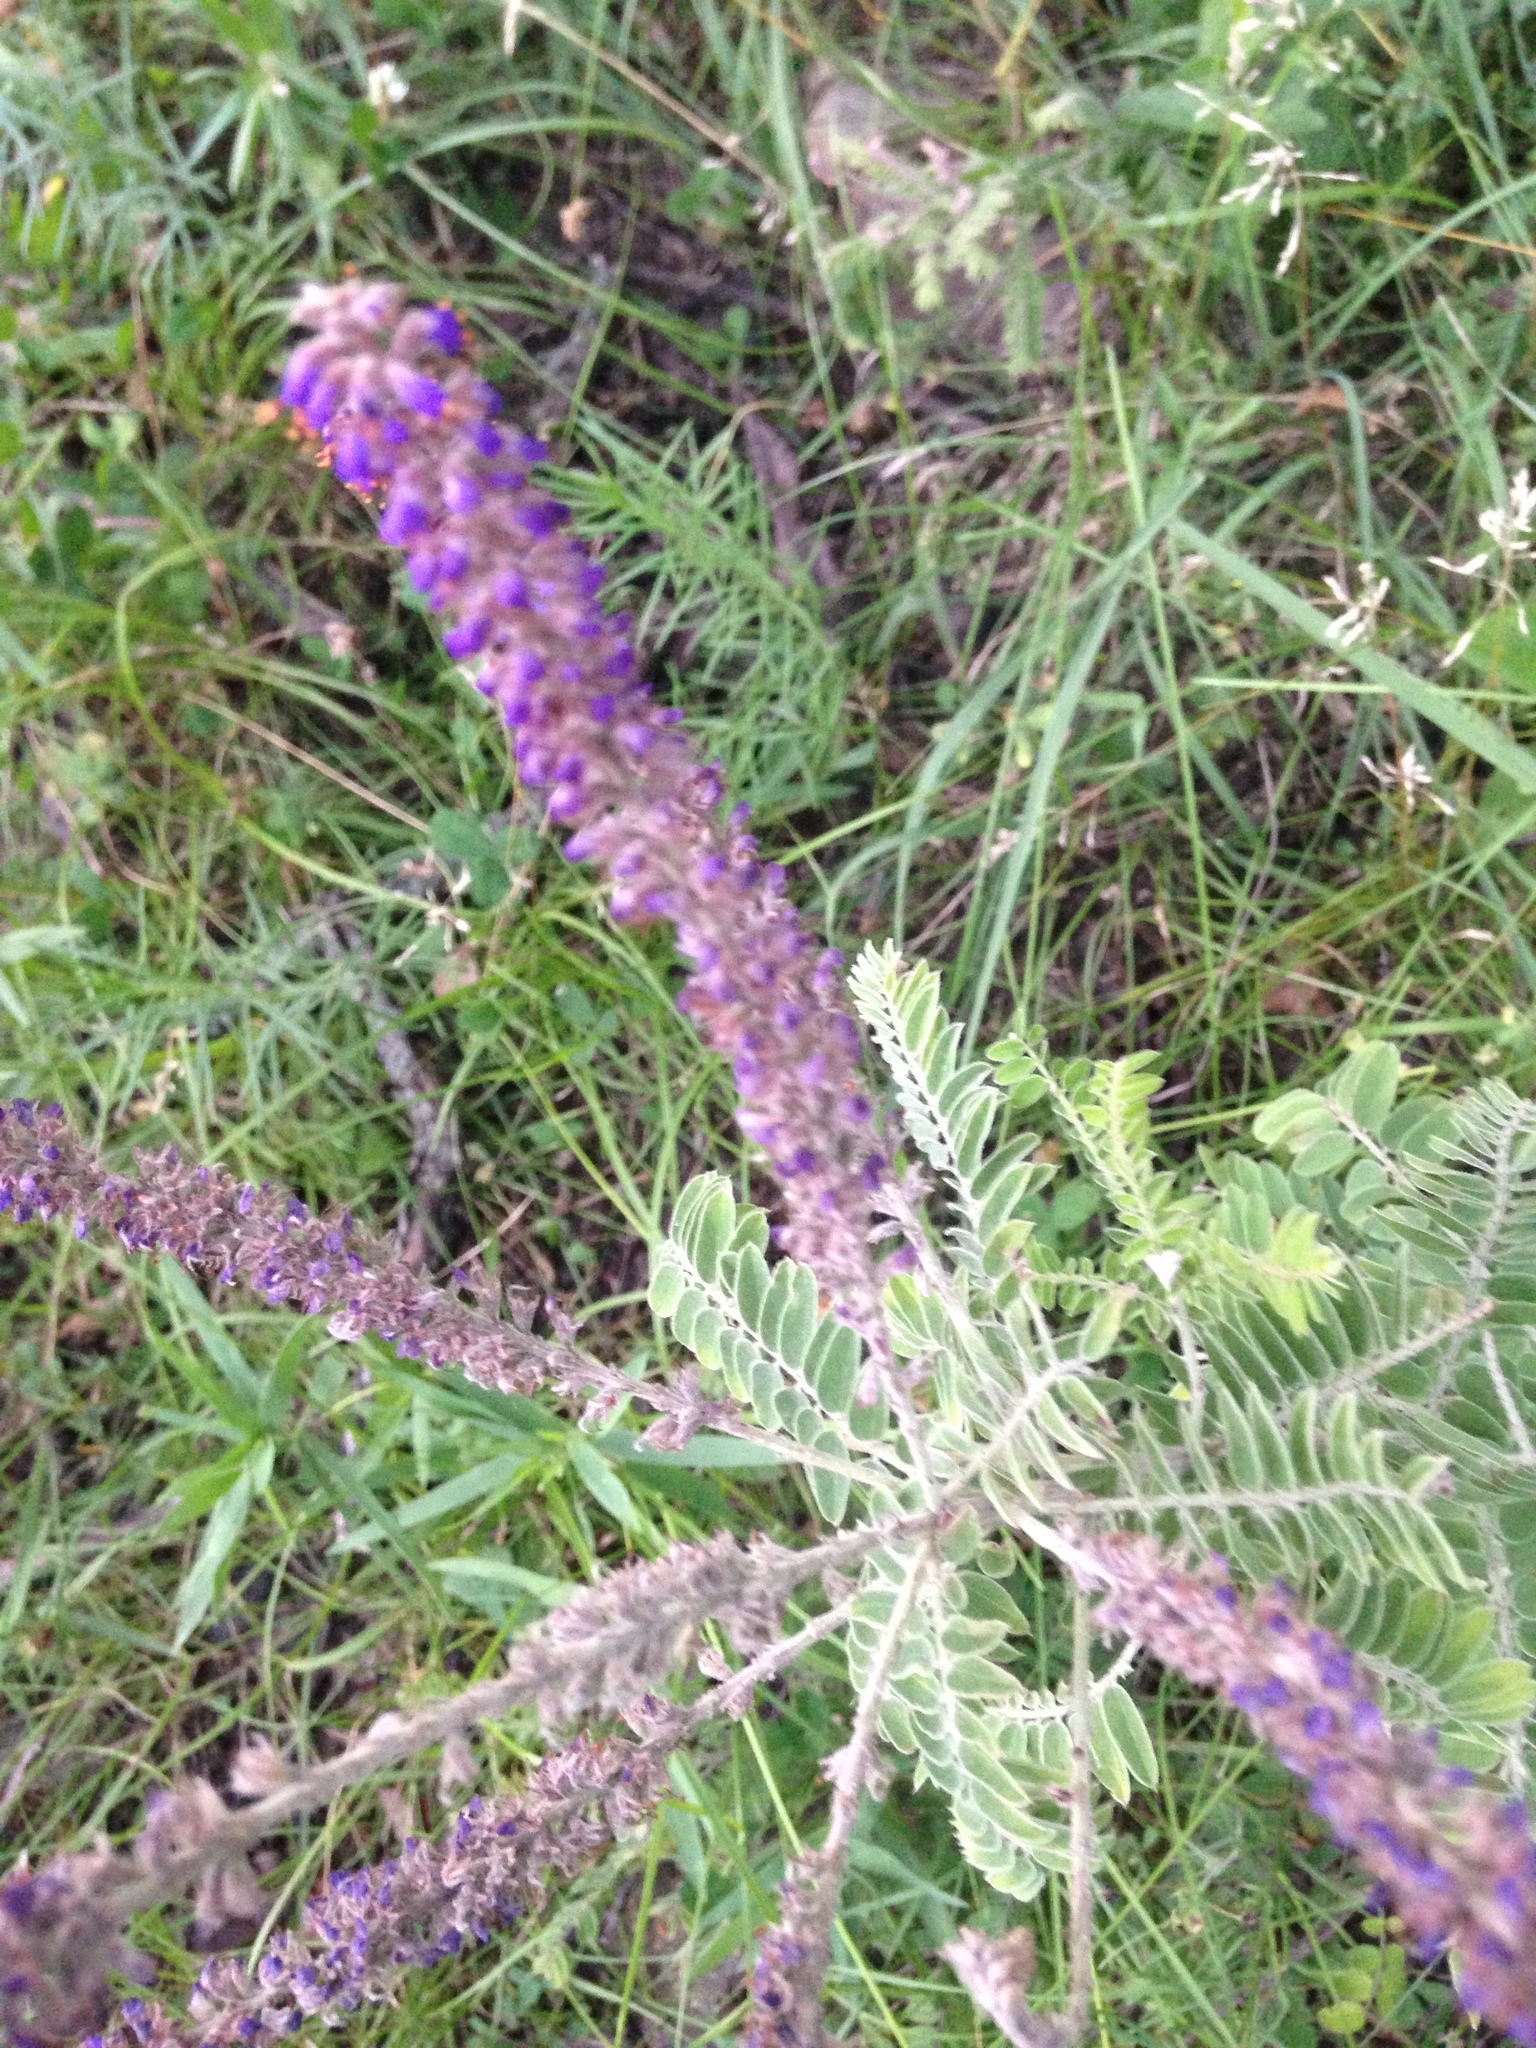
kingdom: Plantae
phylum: Tracheophyta
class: Magnoliopsida
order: Fabales
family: Fabaceae
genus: Amorpha
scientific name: Amorpha canescens
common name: Leadplant
